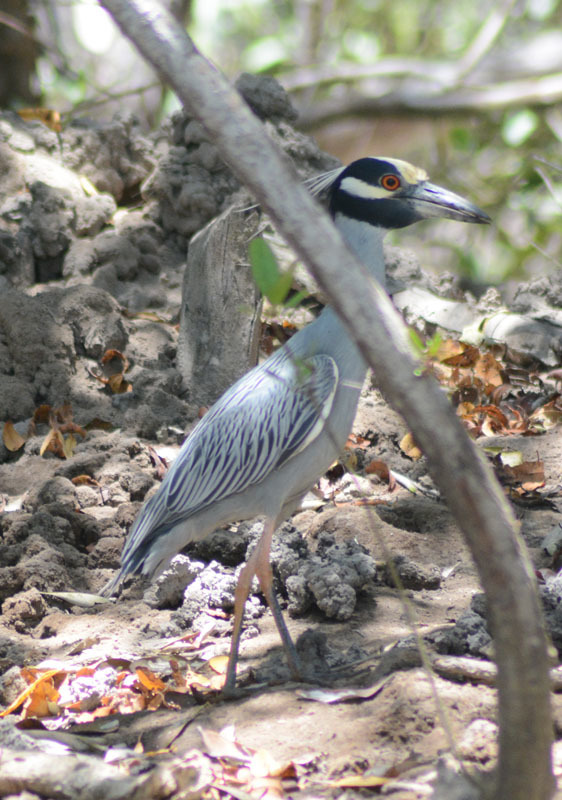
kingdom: Animalia
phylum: Chordata
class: Aves
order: Pelecaniformes
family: Ardeidae
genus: Nyctanassa
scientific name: Nyctanassa violacea
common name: Yellow-crowned night heron
